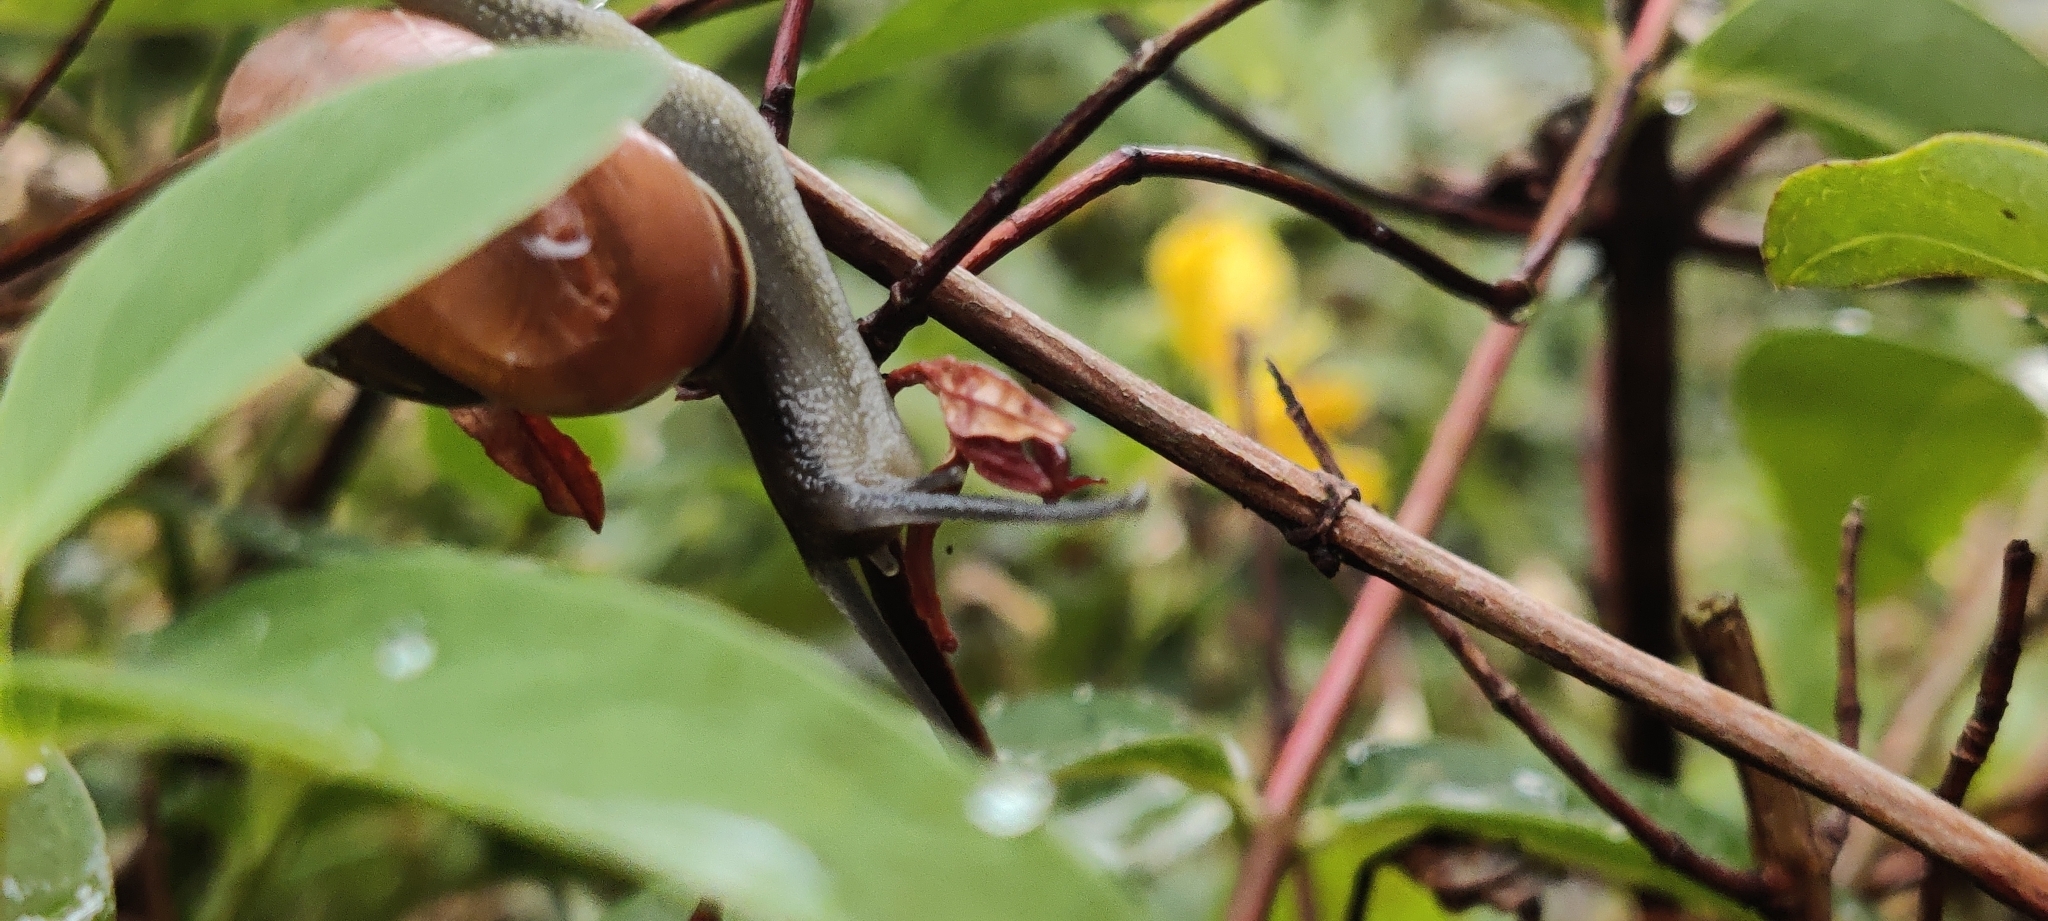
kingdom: Animalia
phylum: Mollusca
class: Gastropoda
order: Stylommatophora
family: Helicidae
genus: Cepaea
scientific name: Cepaea nemoralis
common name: Grovesnail
